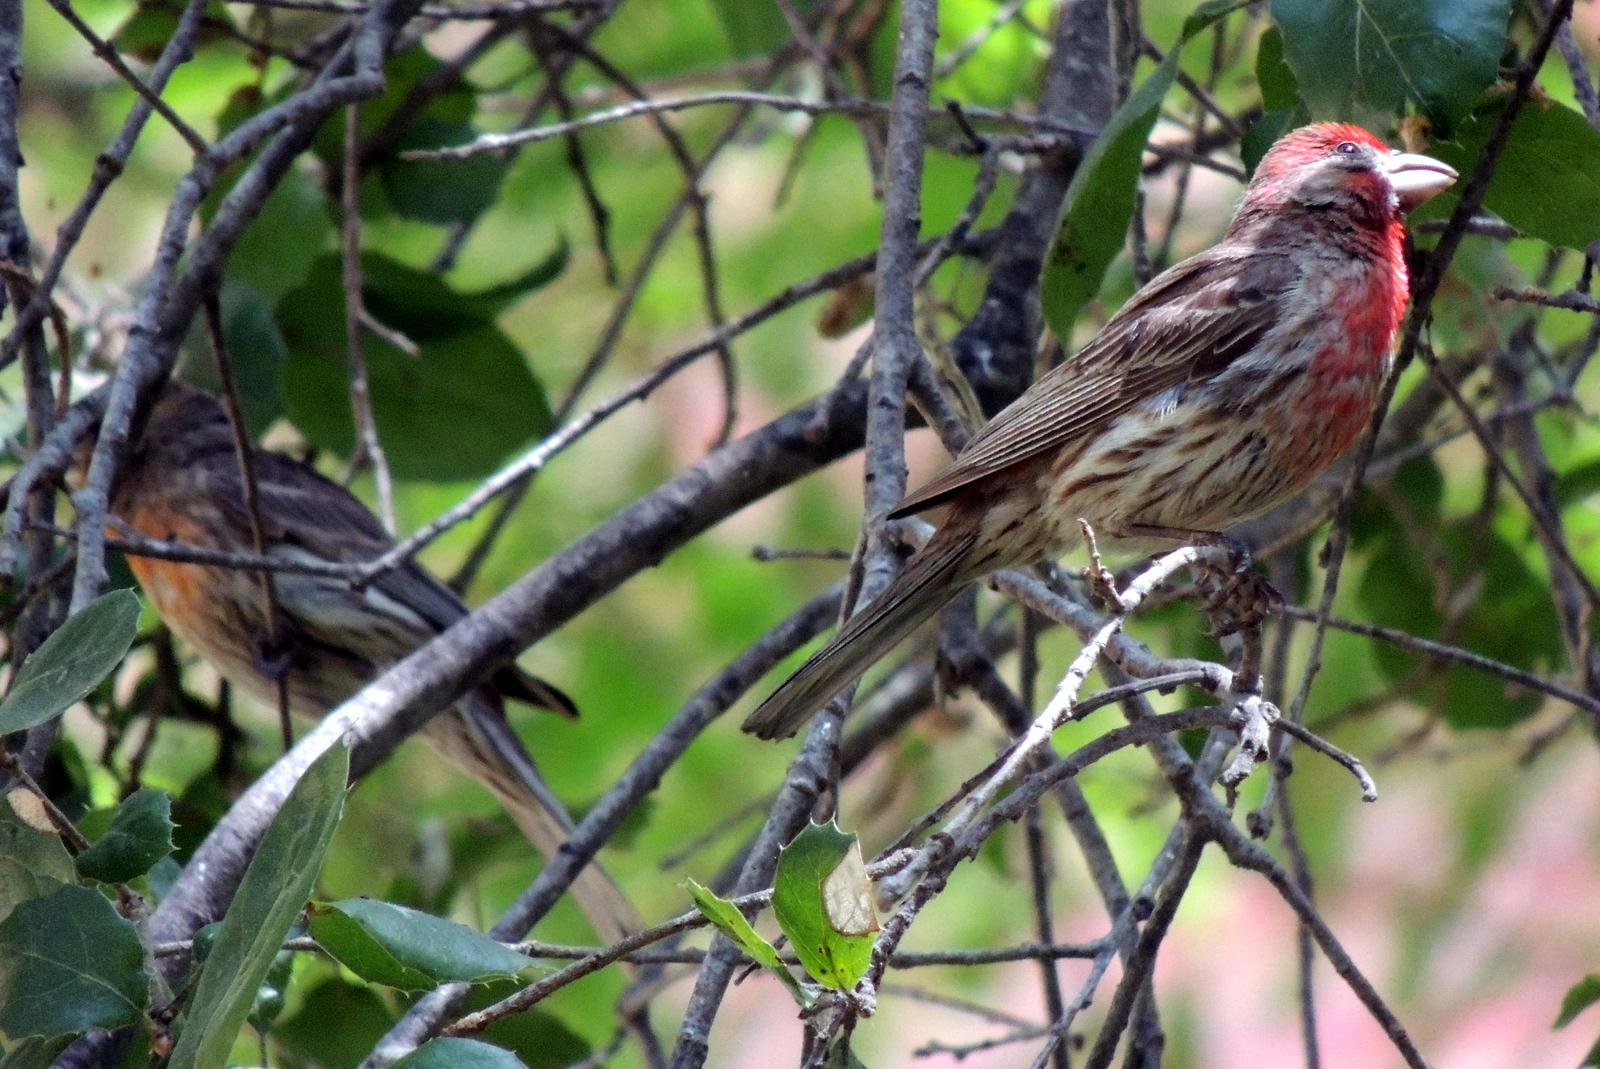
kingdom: Animalia
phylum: Chordata
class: Aves
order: Passeriformes
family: Fringillidae
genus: Haemorhous
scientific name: Haemorhous mexicanus
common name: House finch
